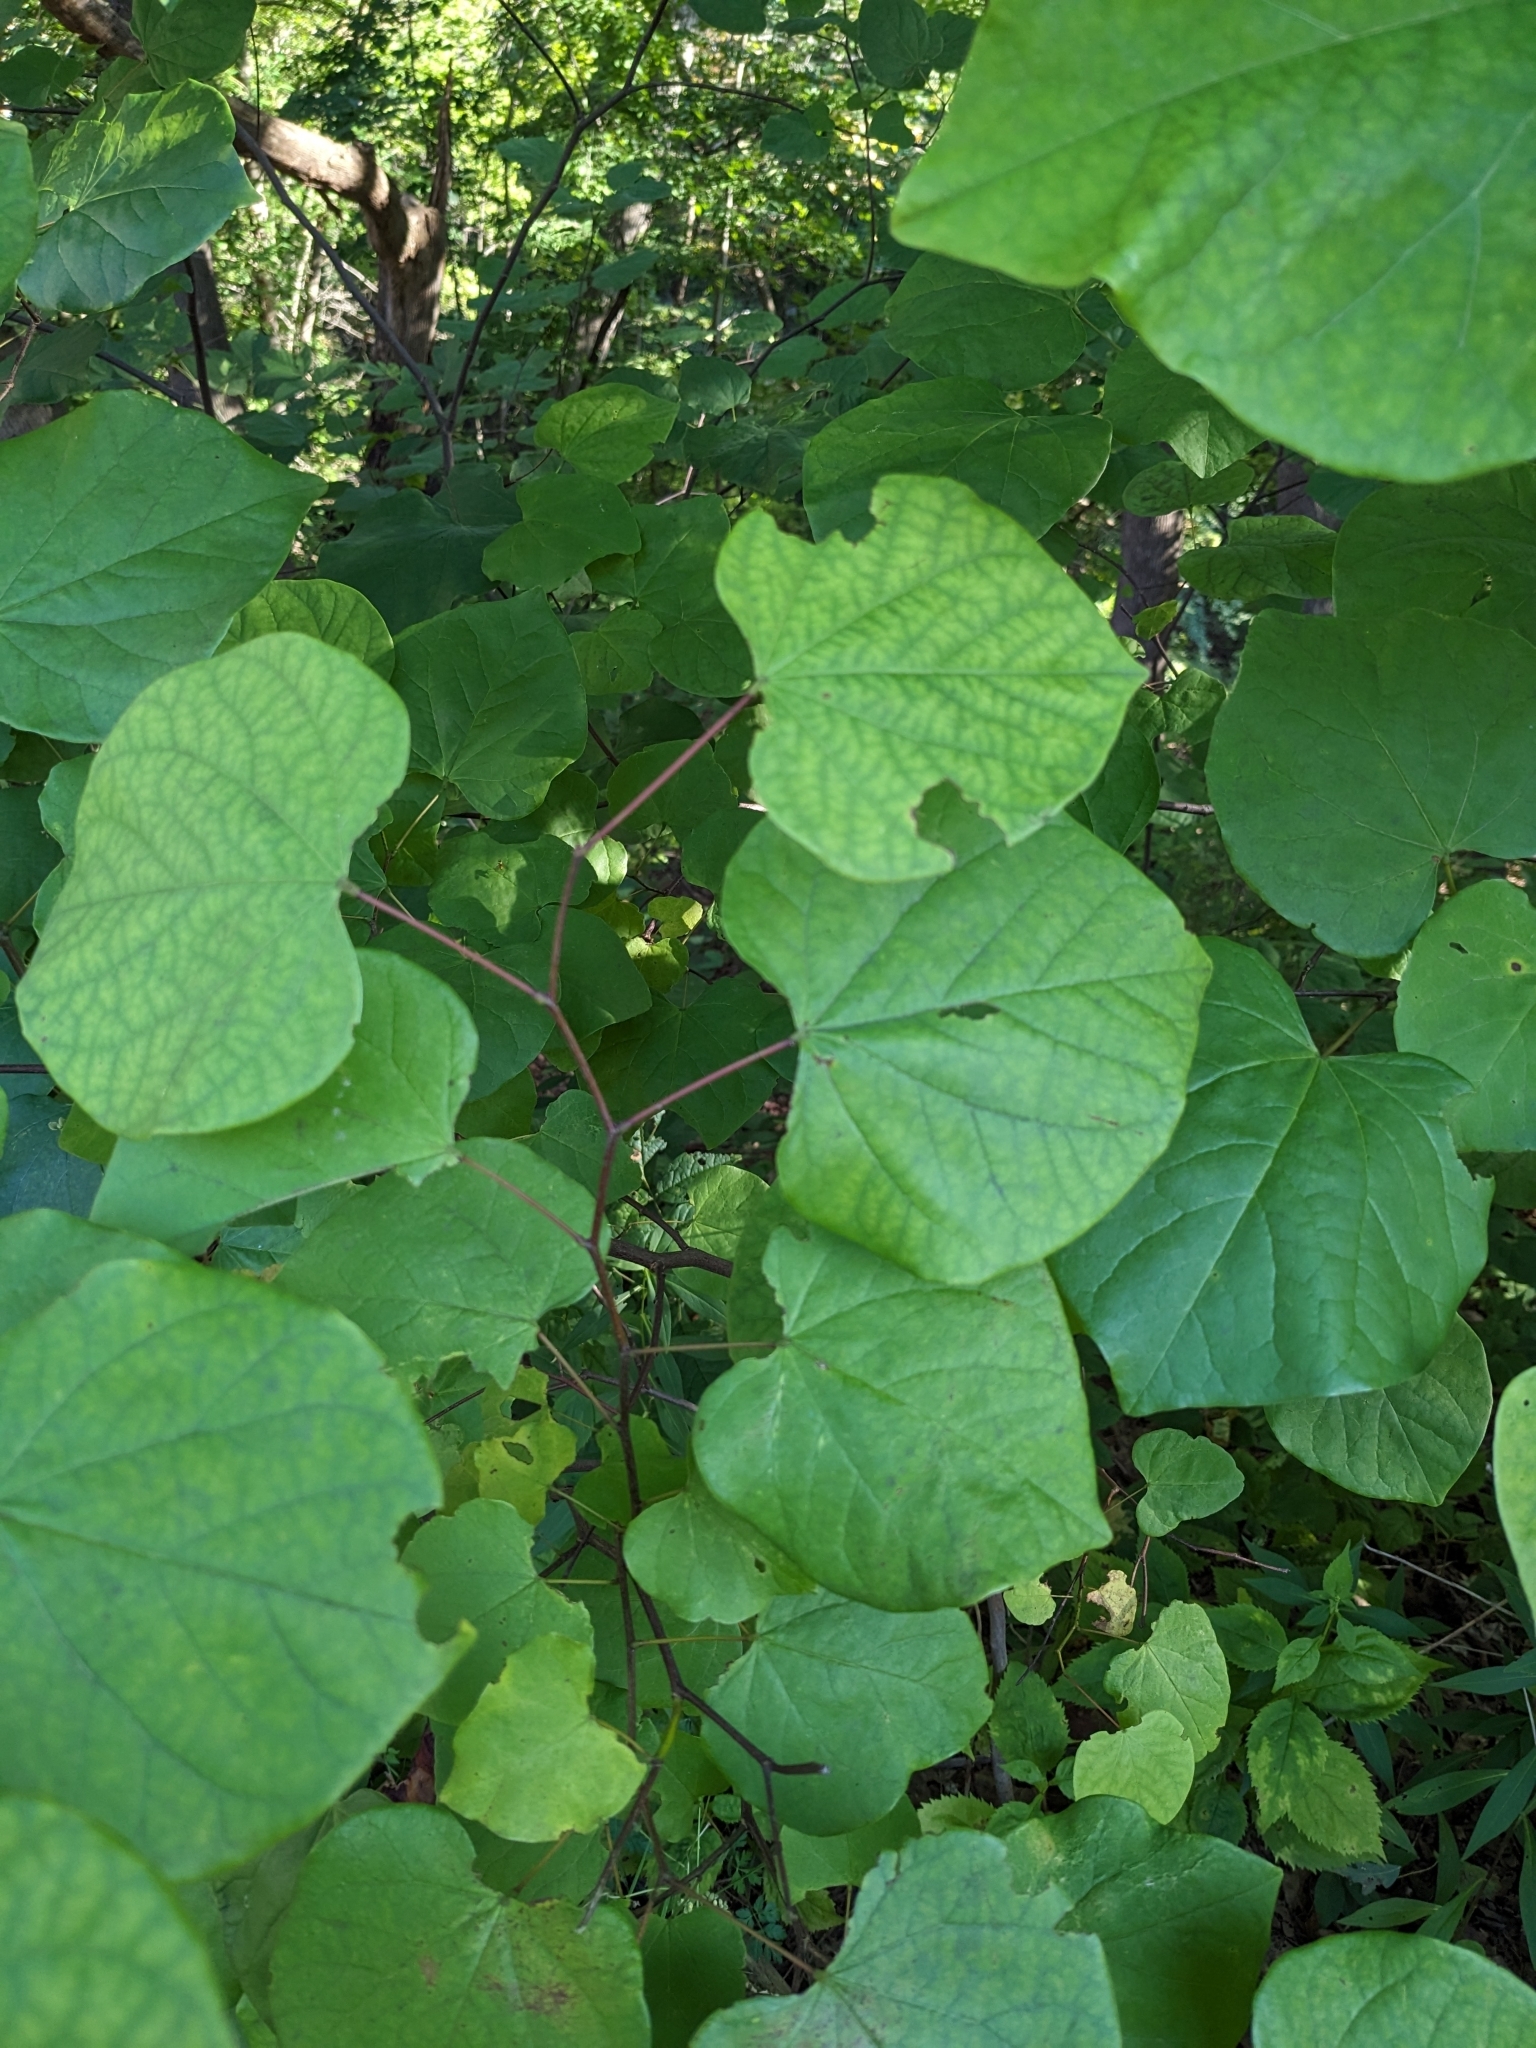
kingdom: Plantae
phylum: Tracheophyta
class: Magnoliopsida
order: Fabales
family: Fabaceae
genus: Cercis
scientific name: Cercis canadensis
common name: Eastern redbud
